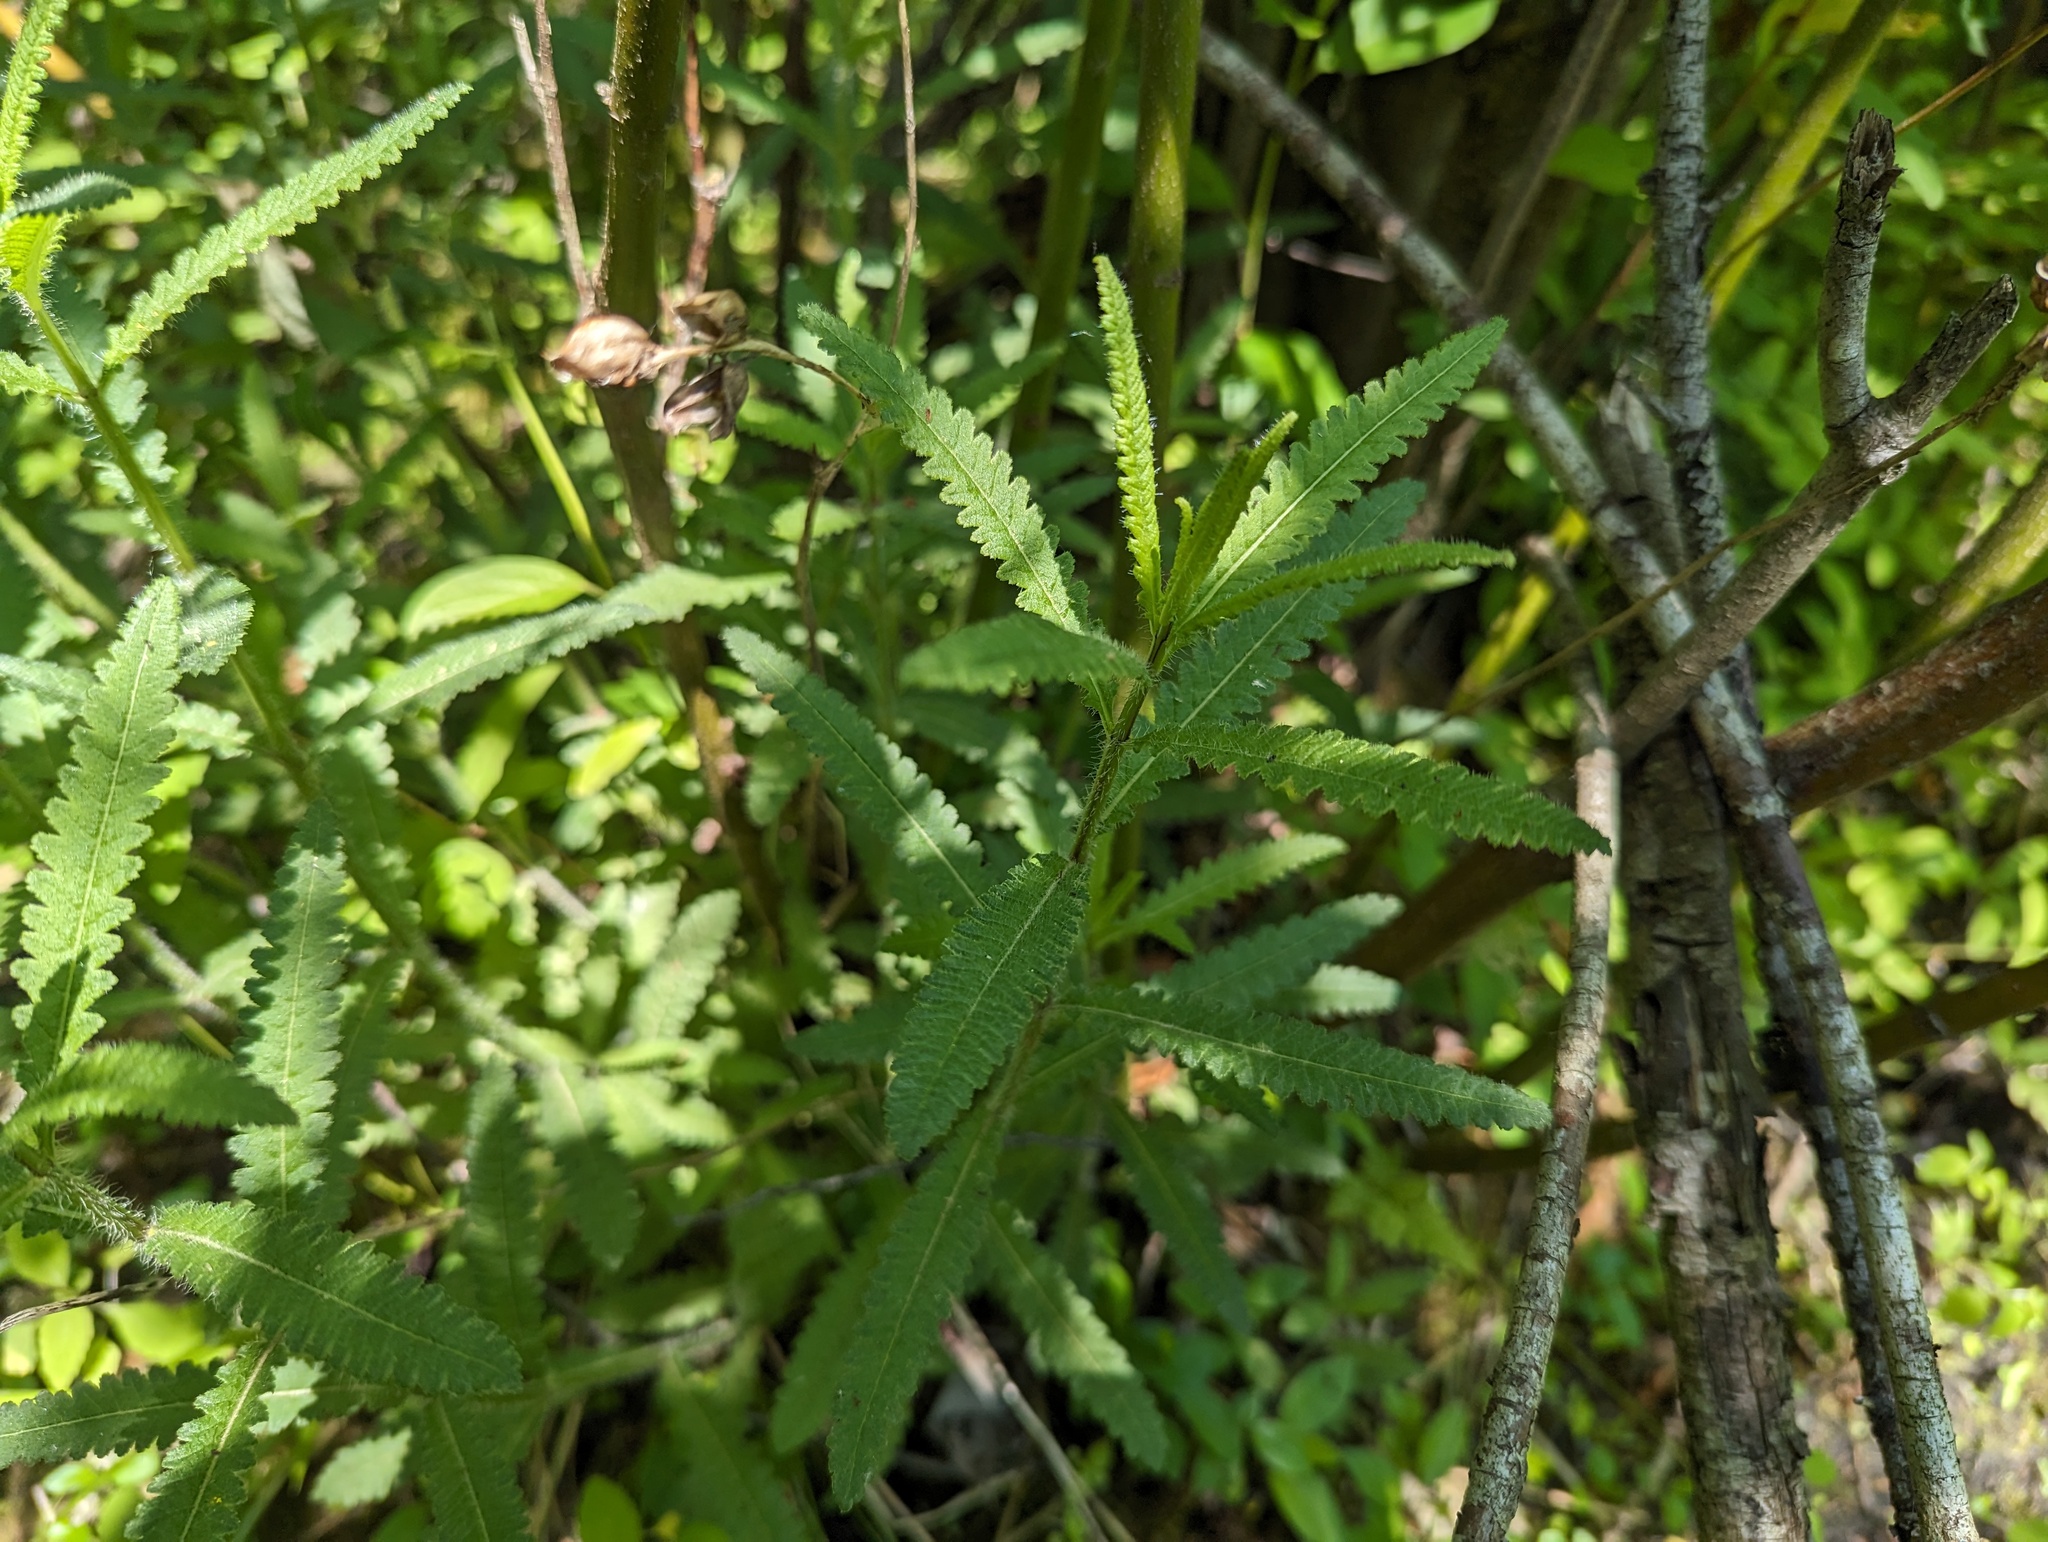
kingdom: Plantae
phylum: Tracheophyta
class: Magnoliopsida
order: Lamiales
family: Orobanchaceae
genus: Pedicularis
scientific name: Pedicularis lanceolata
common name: Swamp lousewort
